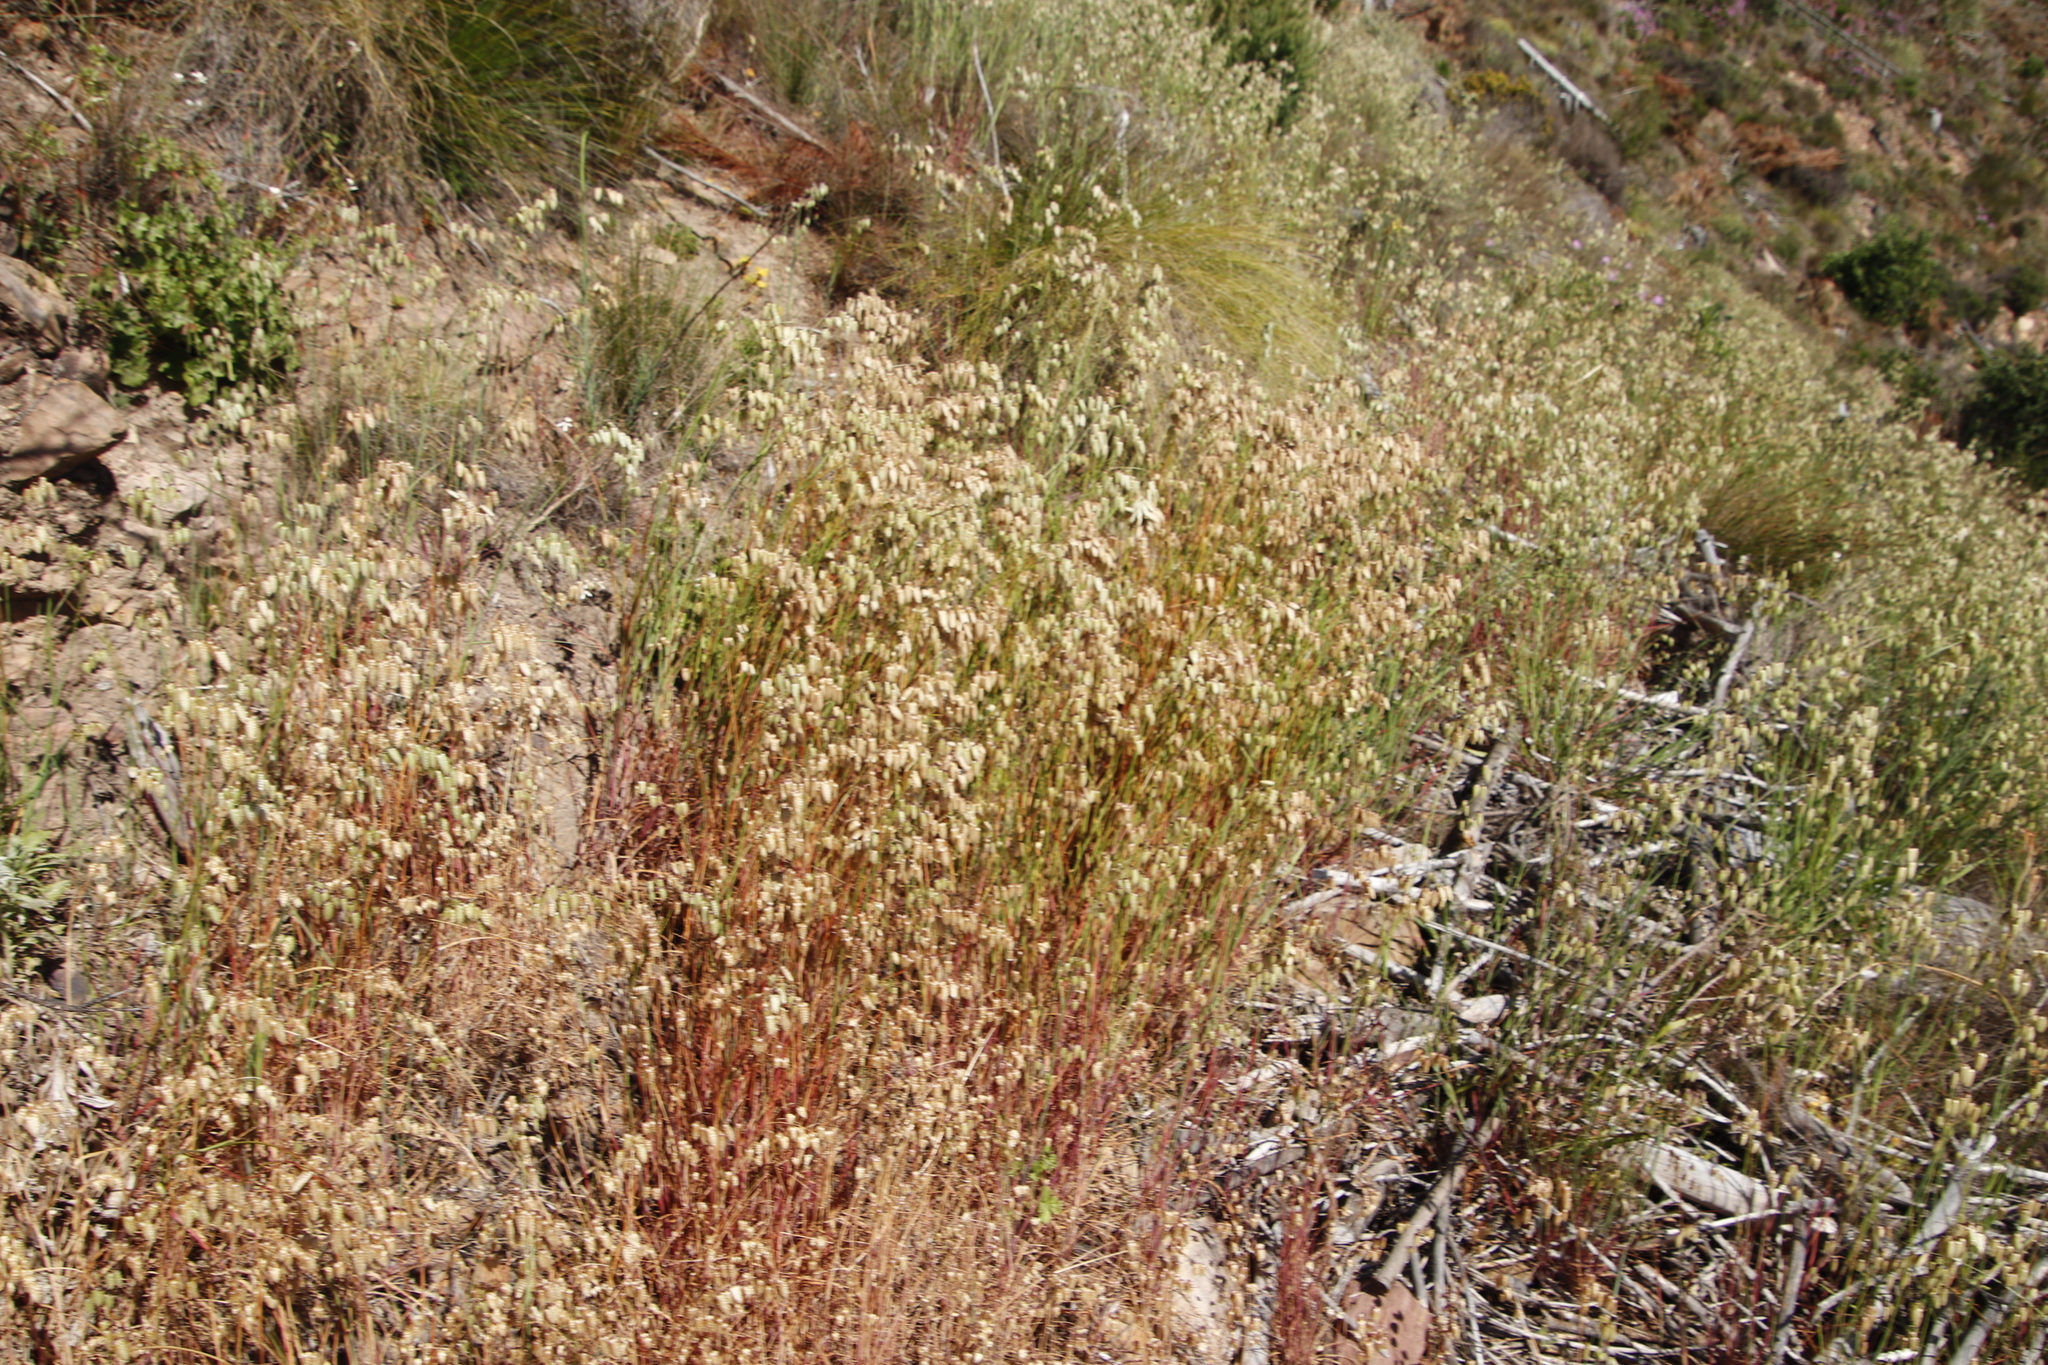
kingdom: Plantae
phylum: Tracheophyta
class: Liliopsida
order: Poales
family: Poaceae
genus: Briza
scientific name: Briza maxima
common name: Big quakinggrass
